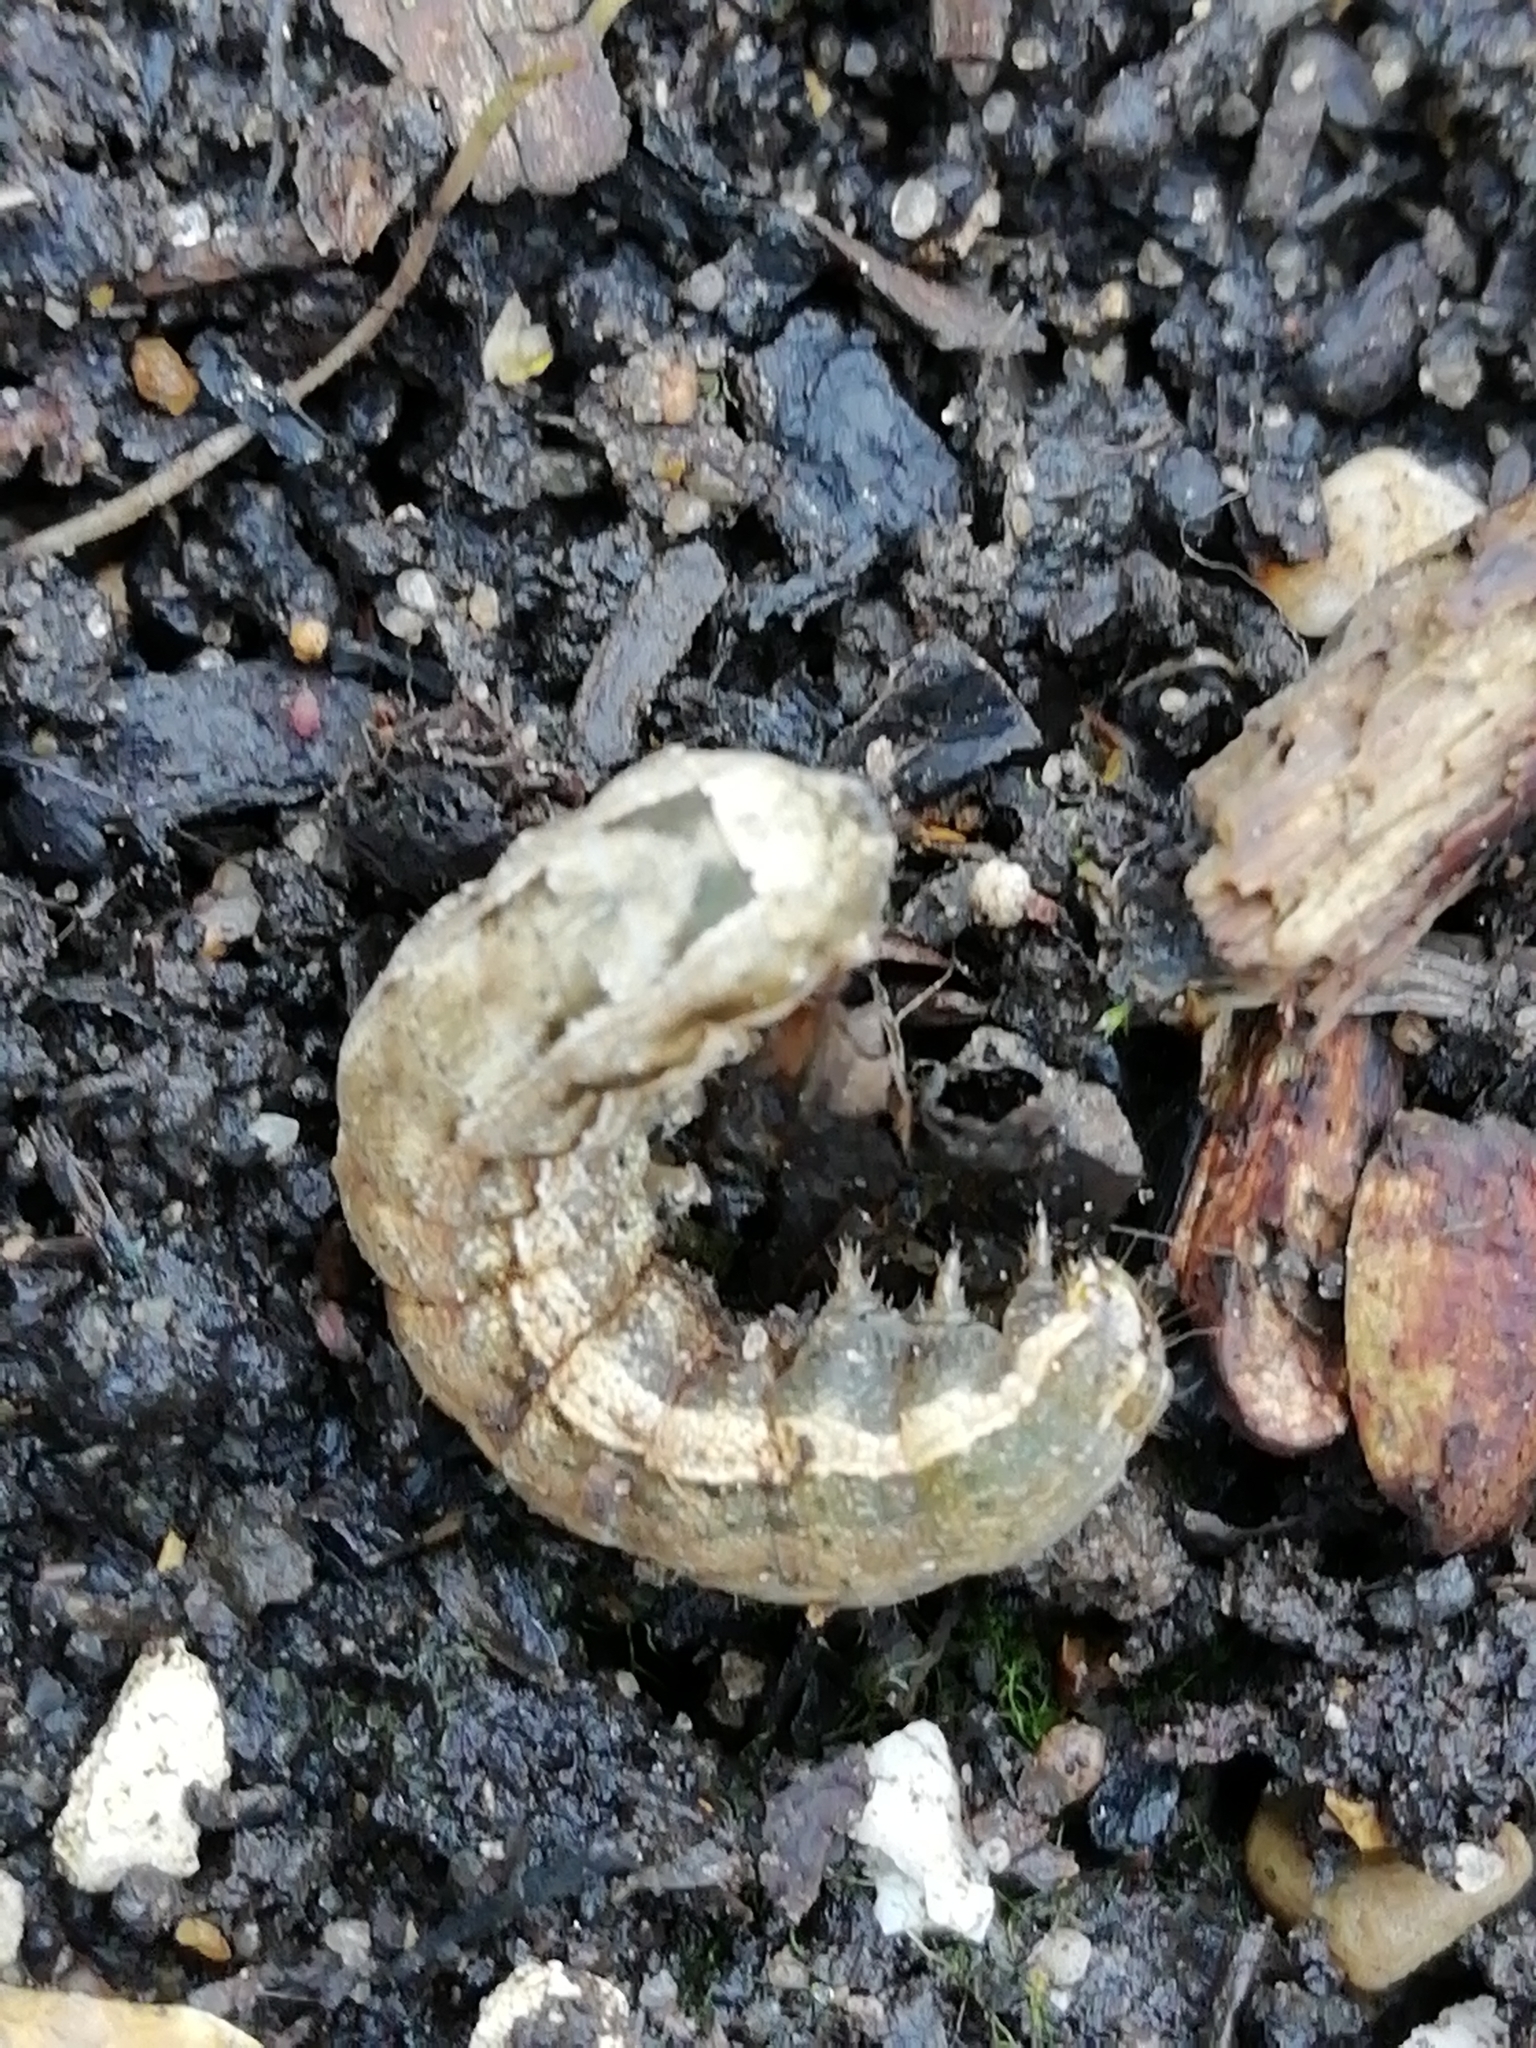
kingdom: Animalia
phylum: Arthropoda
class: Insecta
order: Lepidoptera
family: Noctuidae
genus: Noctua
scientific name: Noctua comes
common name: Lesser yellow underwing
